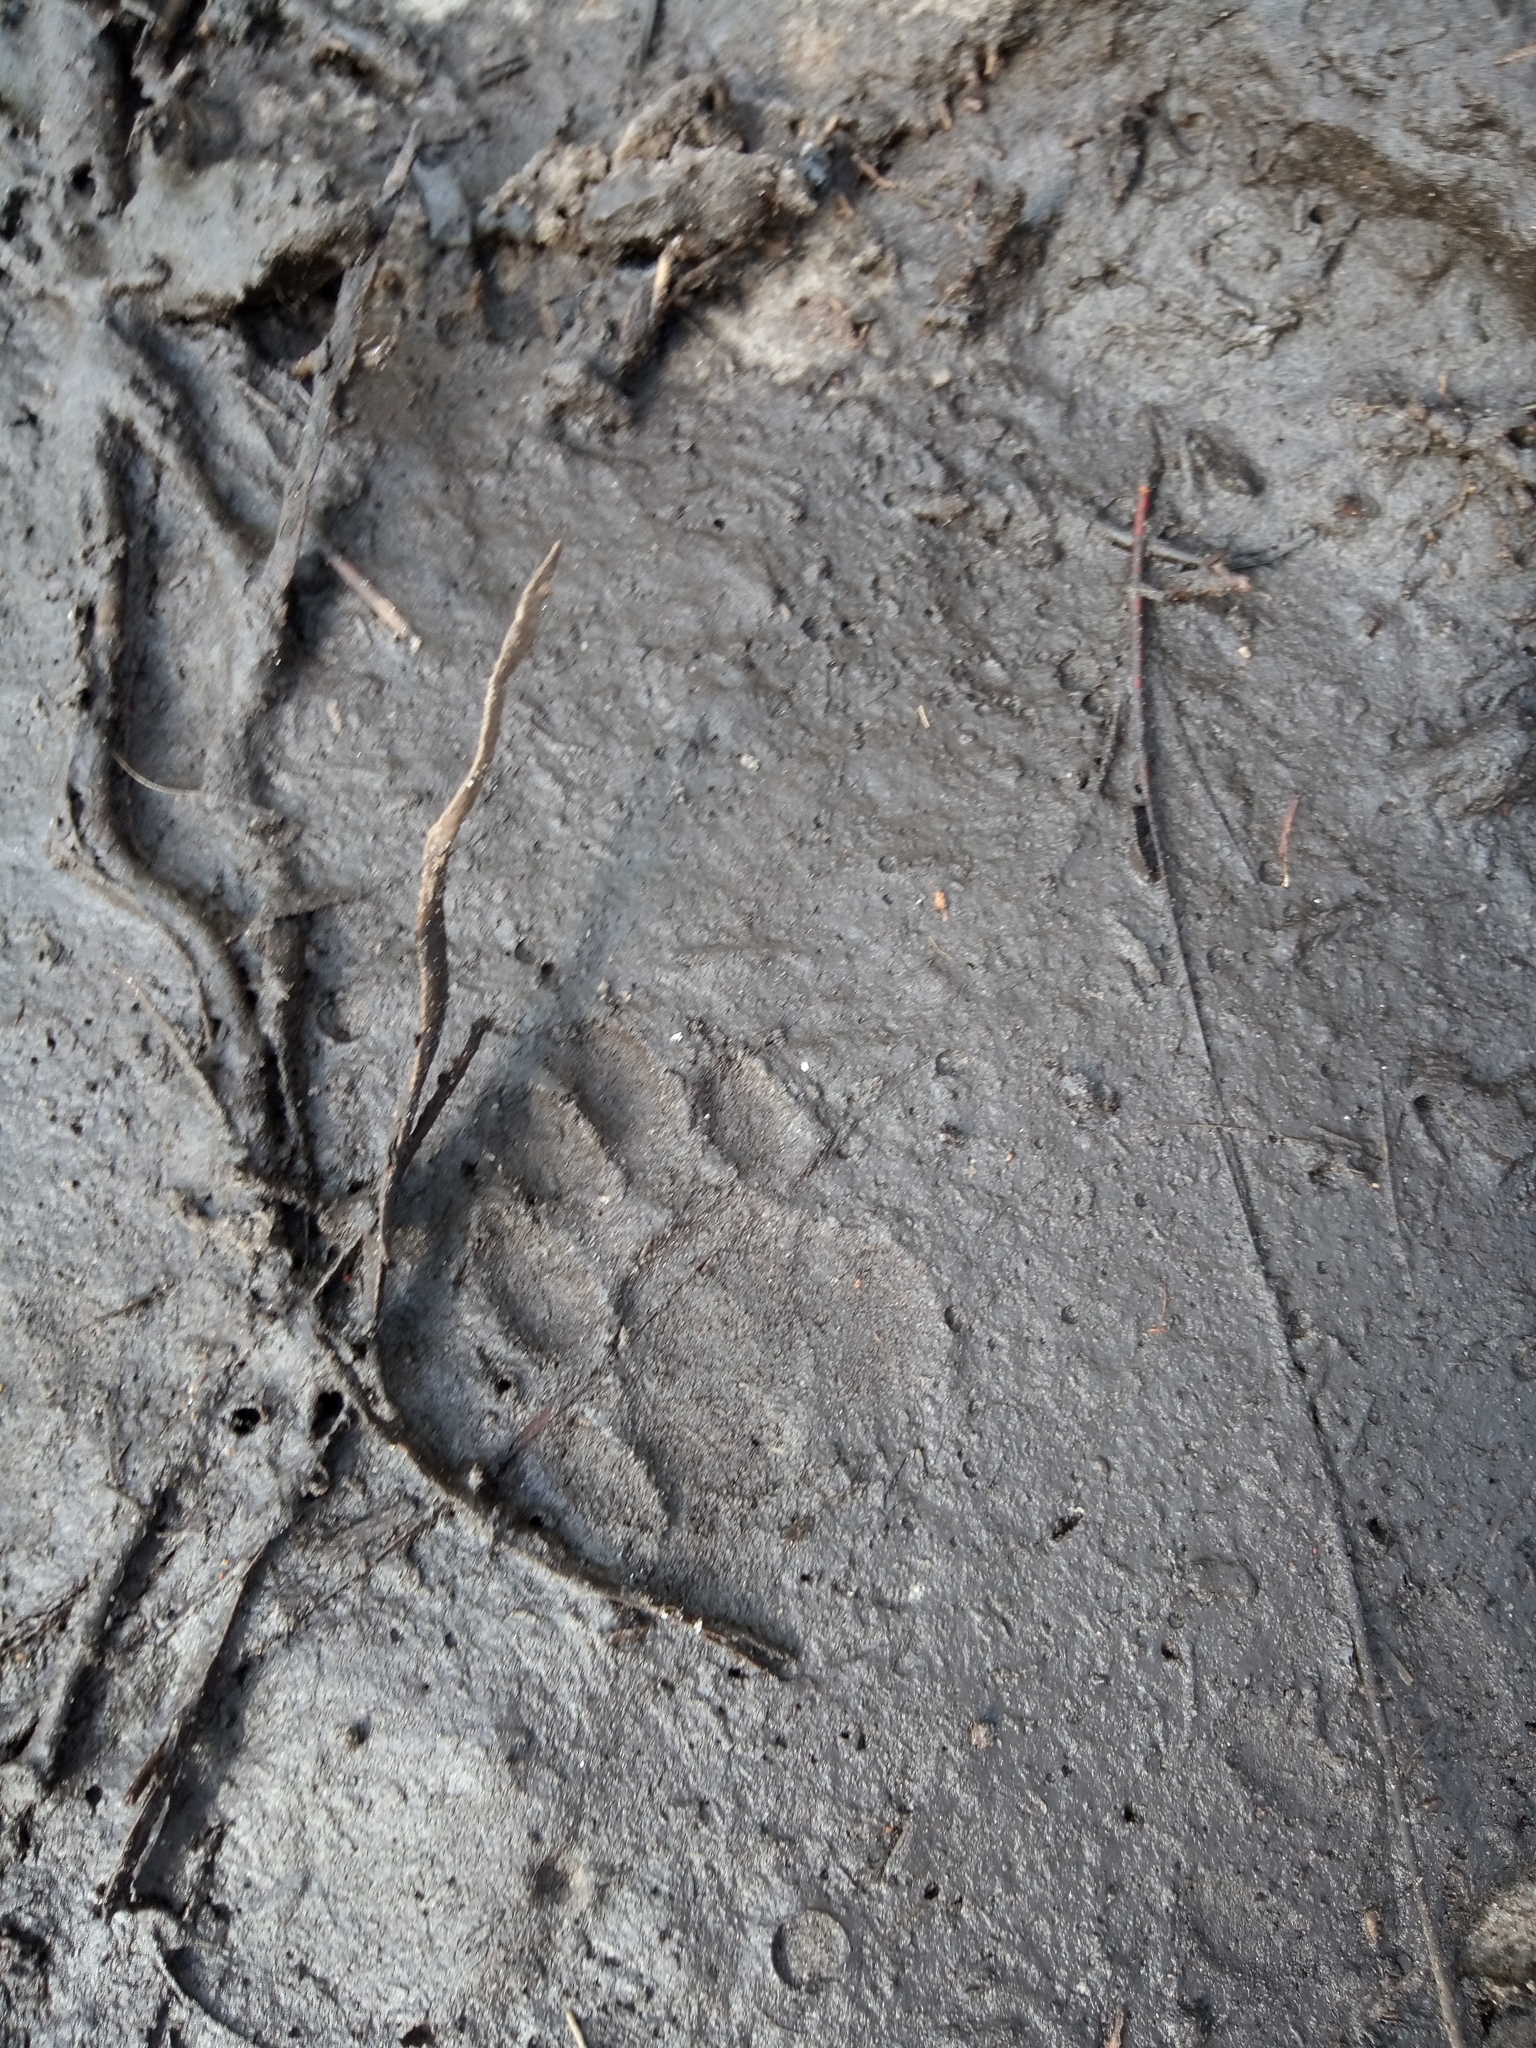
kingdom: Animalia
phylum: Chordata
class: Mammalia
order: Carnivora
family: Procyonidae
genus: Procyon
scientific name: Procyon lotor
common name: Raccoon
